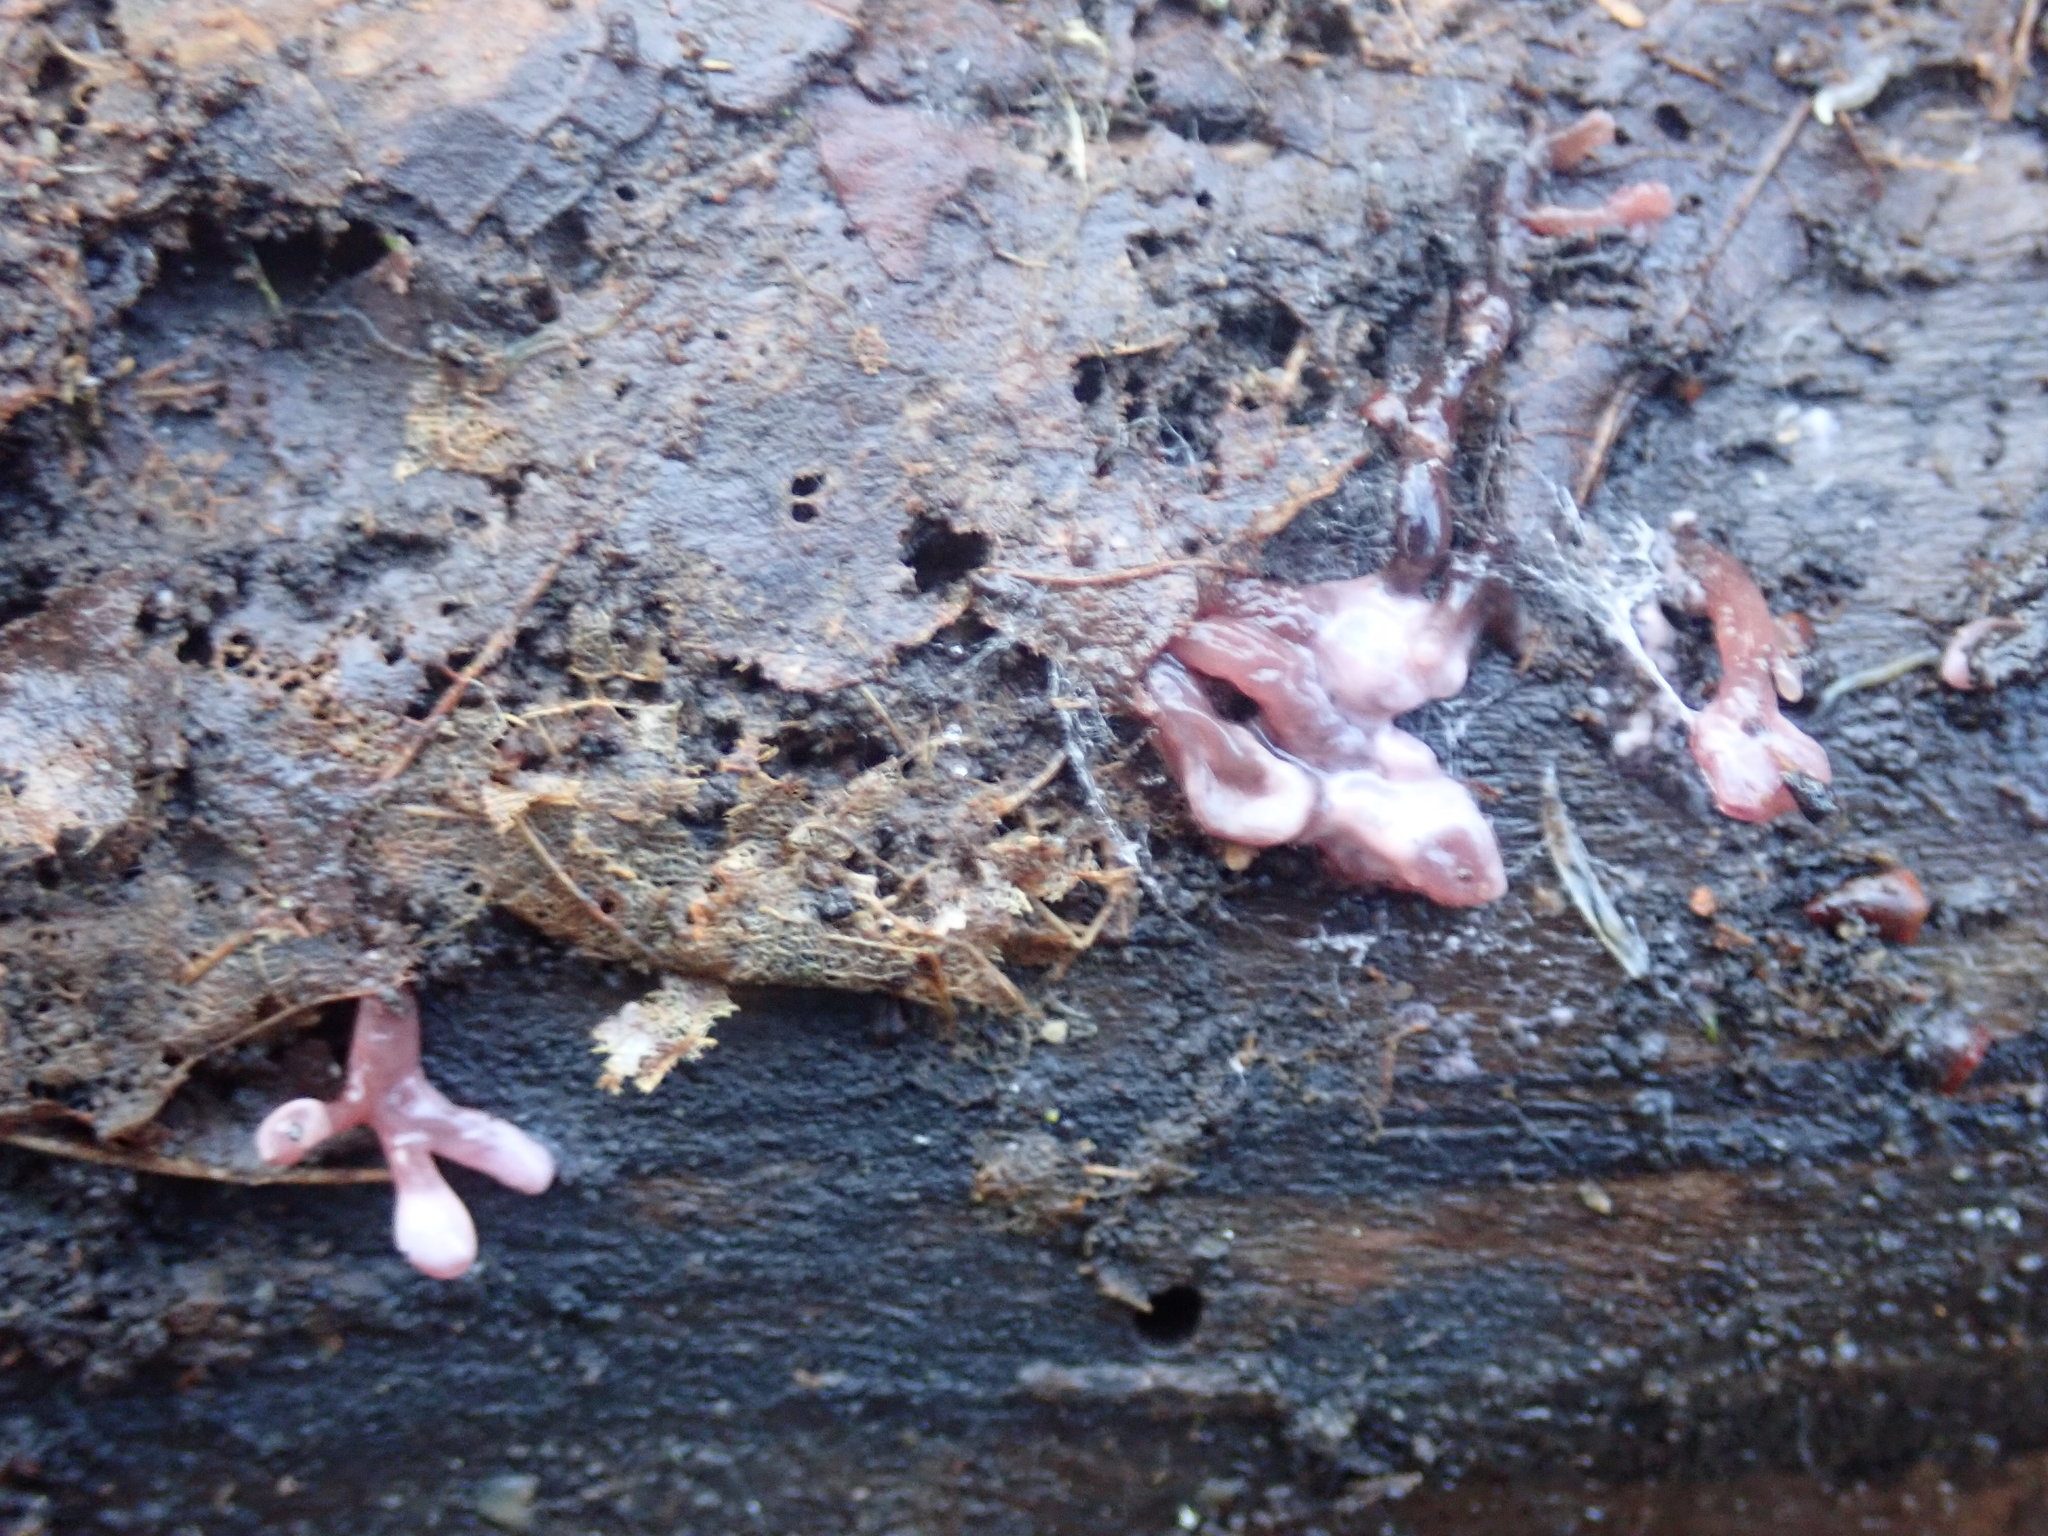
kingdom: Fungi
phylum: Ascomycota
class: Leotiomycetes
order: Helotiales
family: Gelatinodiscaceae
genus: Ascocoryne
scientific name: Ascocoryne sarcoides
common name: Purple jellydisc
